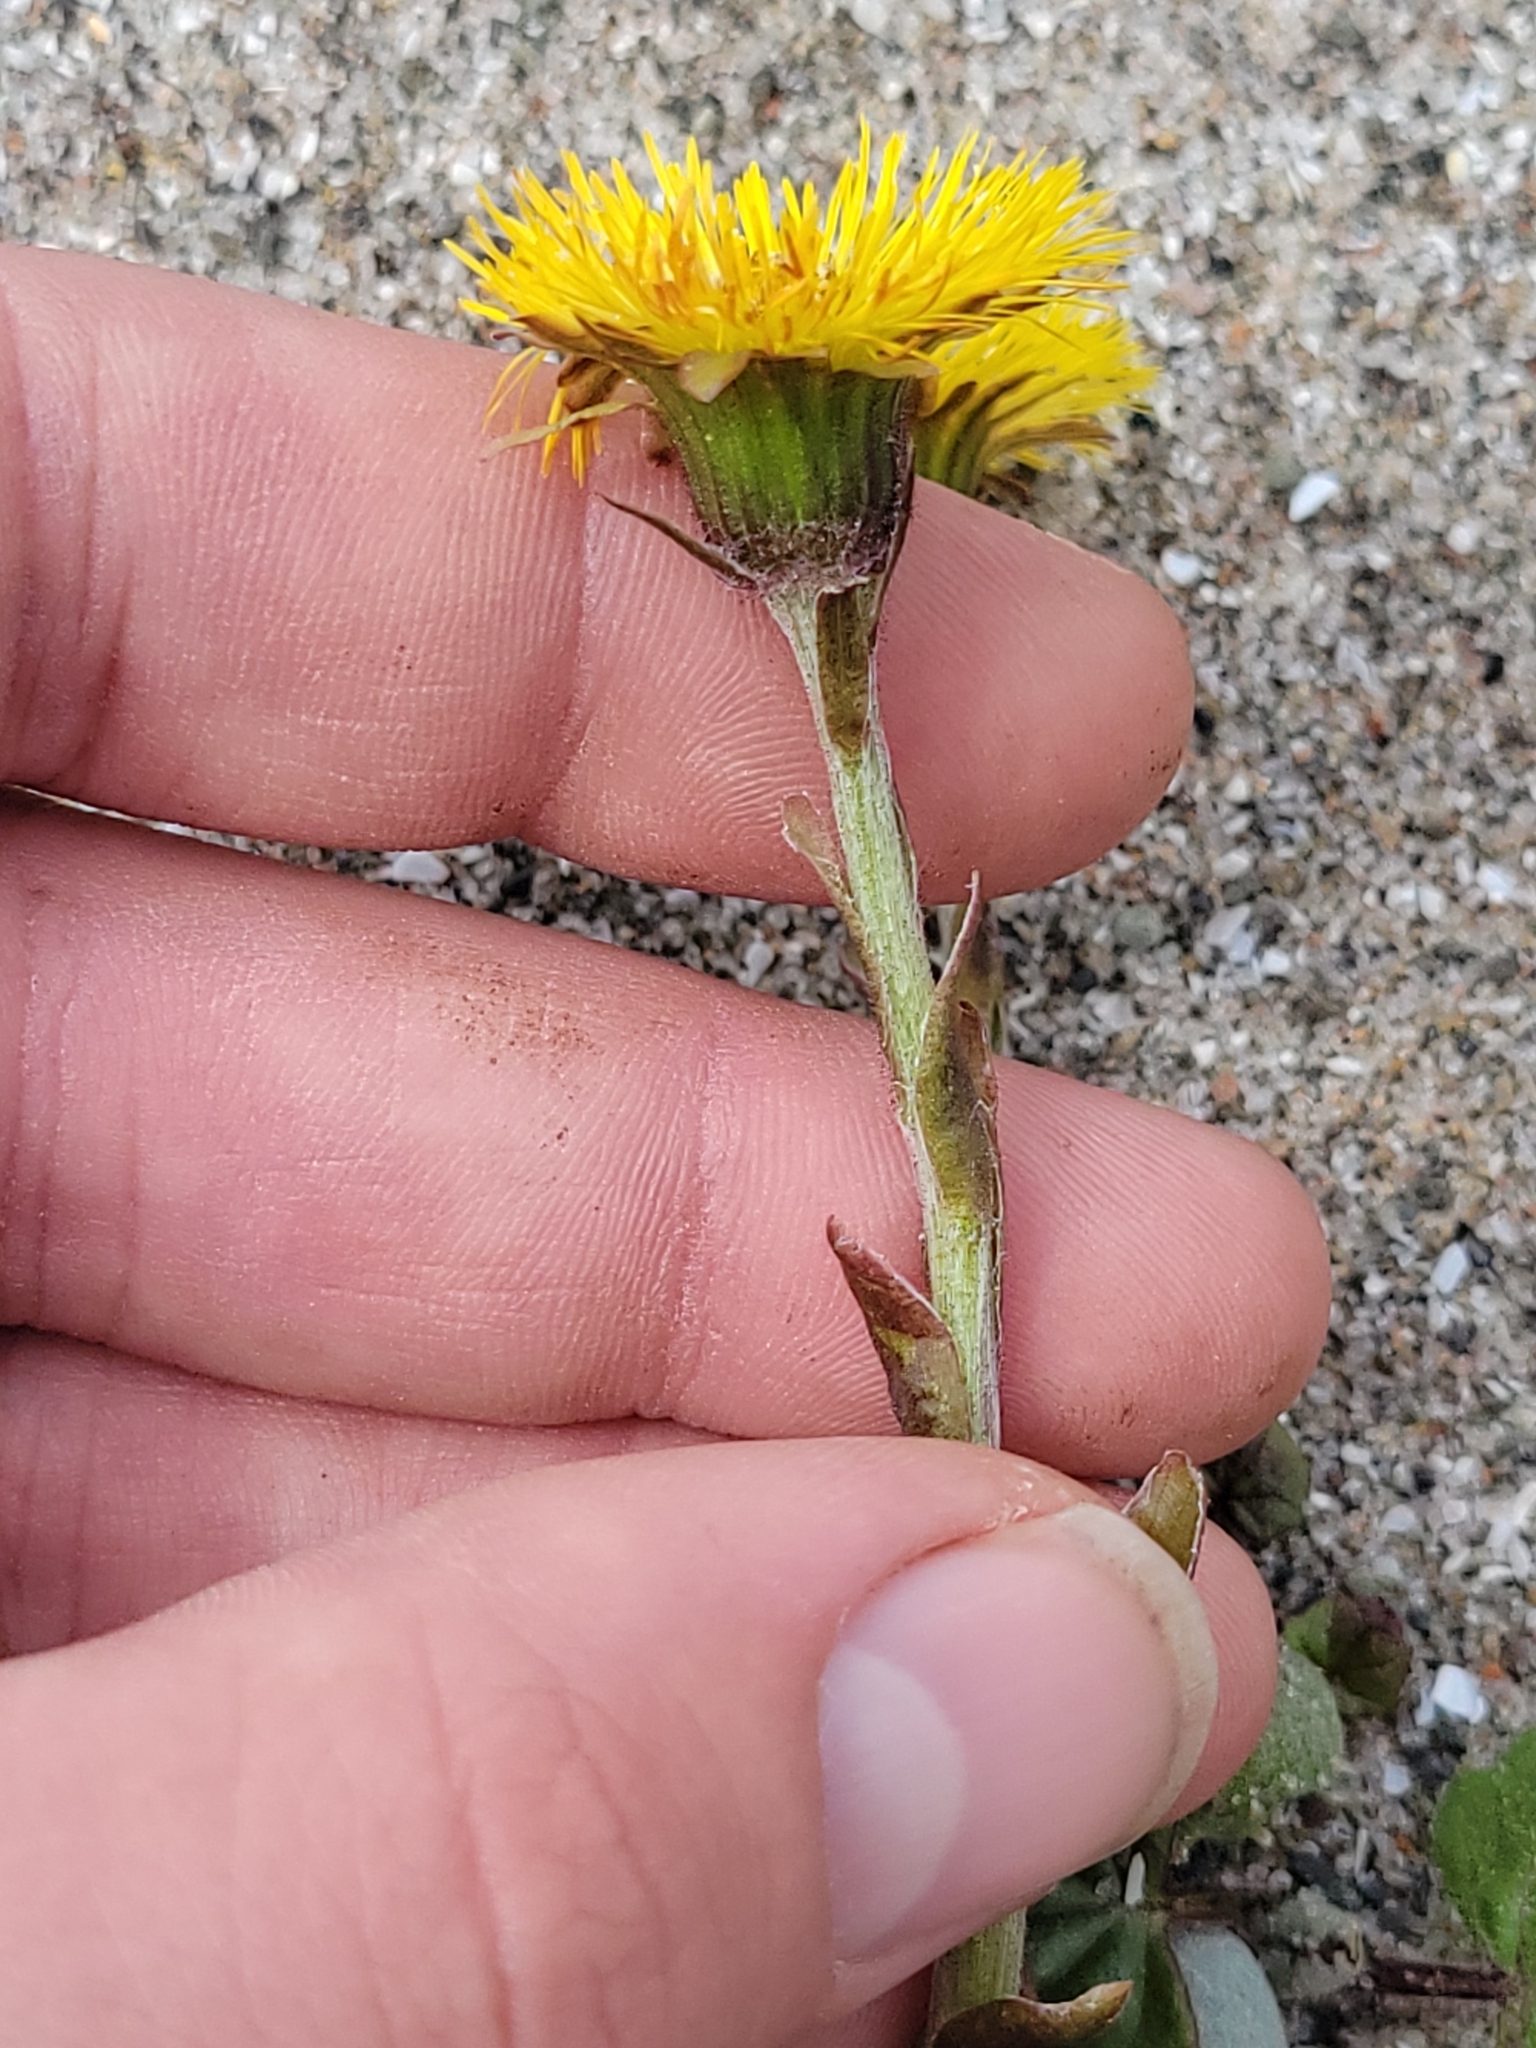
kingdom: Plantae
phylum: Tracheophyta
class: Magnoliopsida
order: Asterales
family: Asteraceae
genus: Tussilago
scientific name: Tussilago farfara
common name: Coltsfoot
